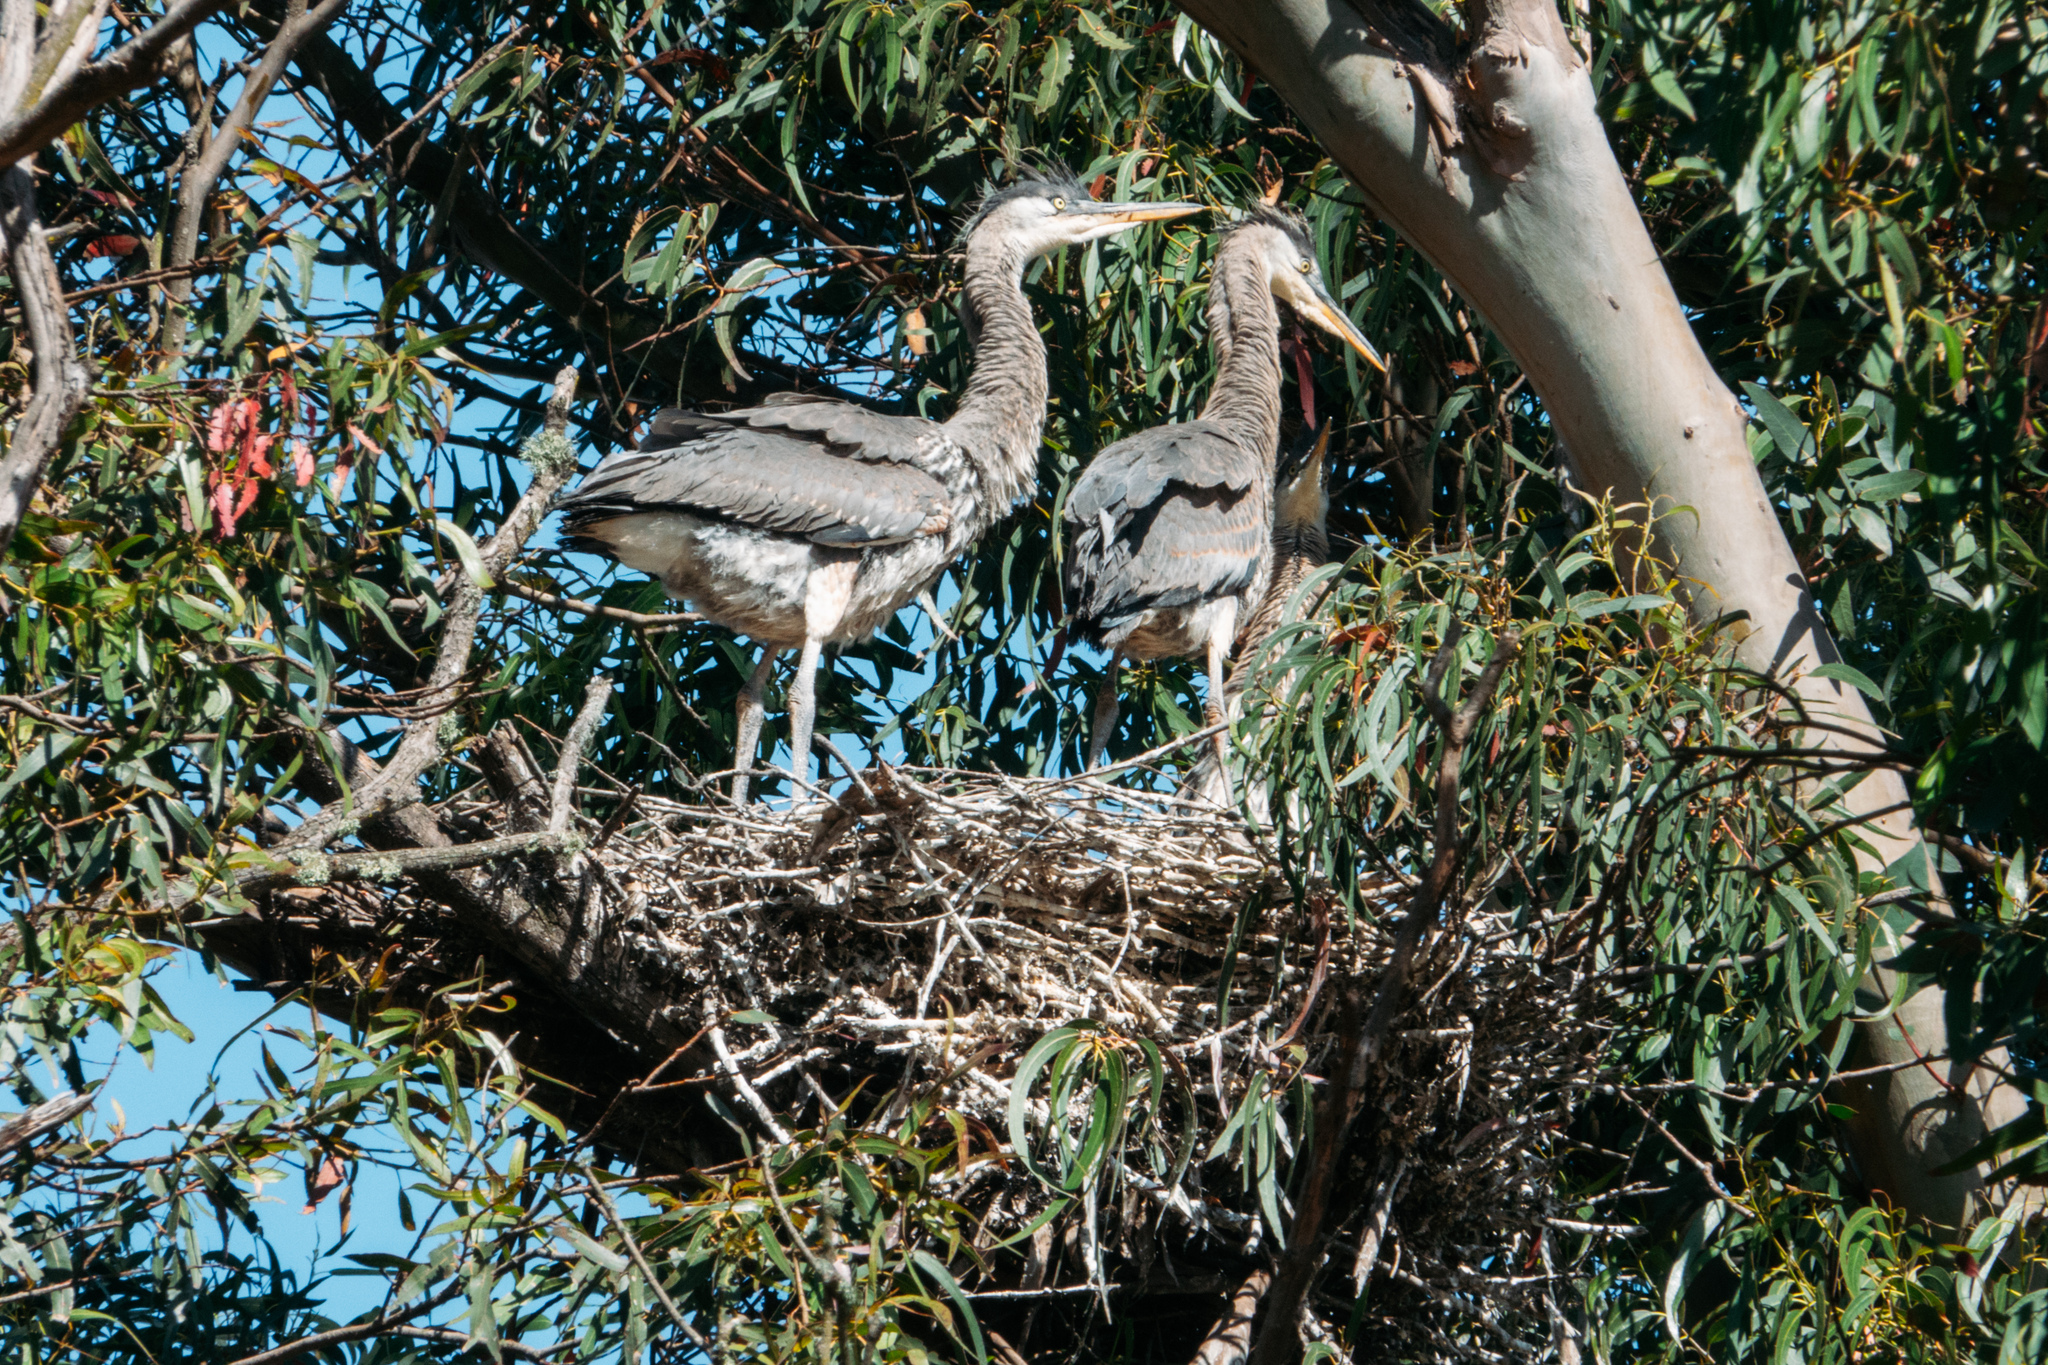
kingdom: Animalia
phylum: Chordata
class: Aves
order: Pelecaniformes
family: Ardeidae
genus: Ardea
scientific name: Ardea herodias
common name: Great blue heron
